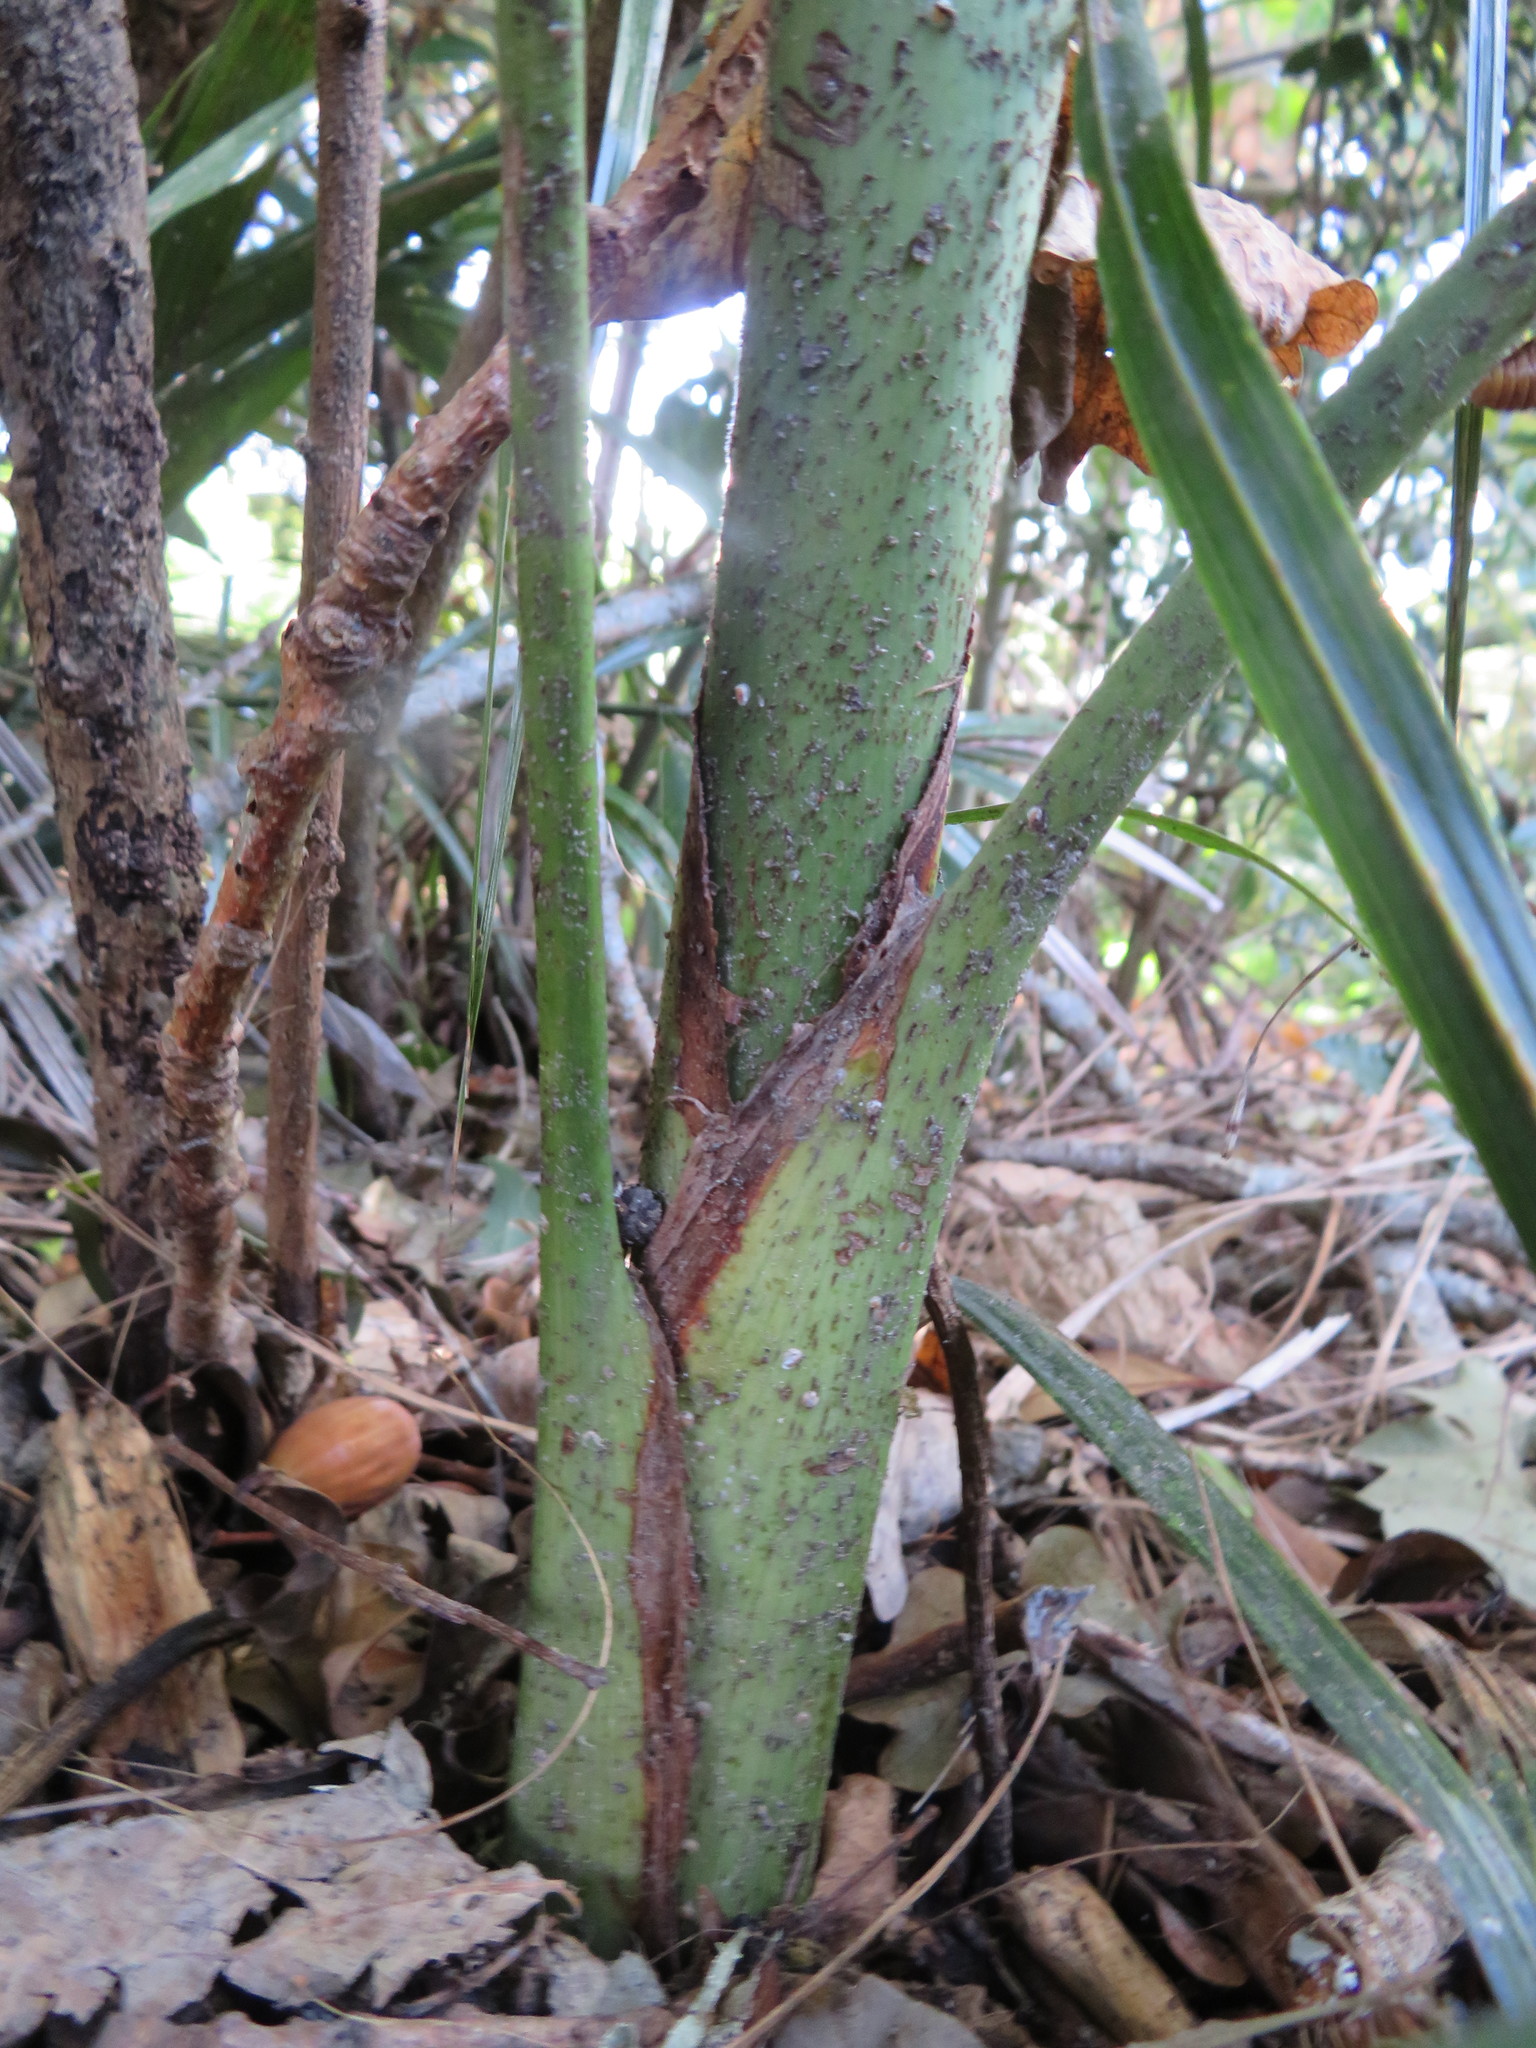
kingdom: Plantae
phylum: Tracheophyta
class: Liliopsida
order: Arecales
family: Arecaceae
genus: Archontophoenix
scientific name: Archontophoenix cunninghamiana
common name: Piccabeen bangalow palm
